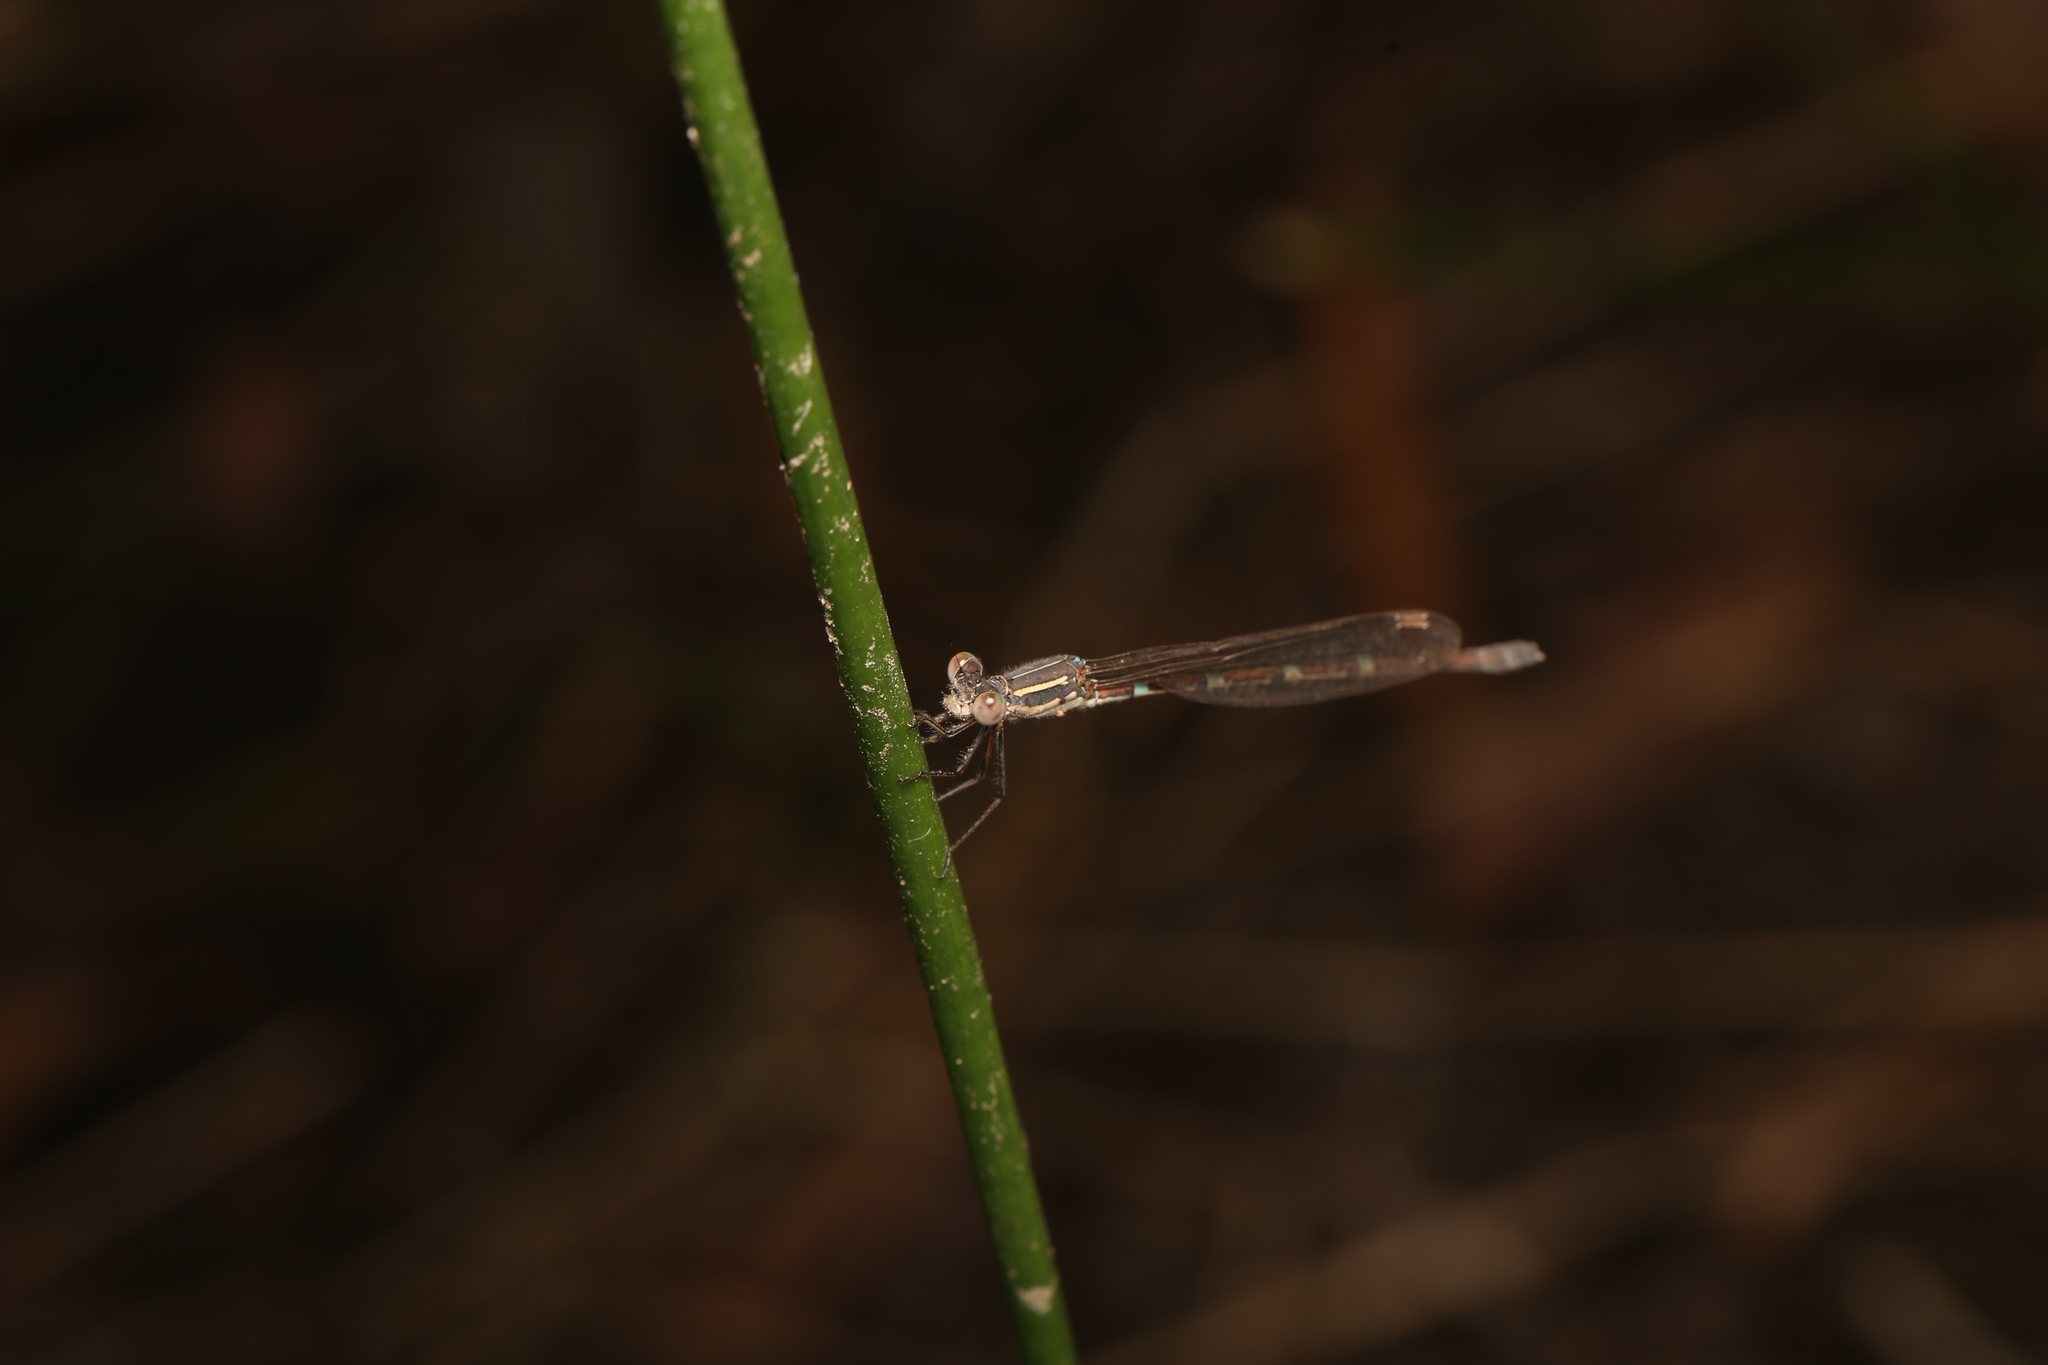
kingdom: Animalia
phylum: Arthropoda
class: Insecta
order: Odonata
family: Lestidae
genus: Austrolestes
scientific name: Austrolestes leda
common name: Wandering ringtail
